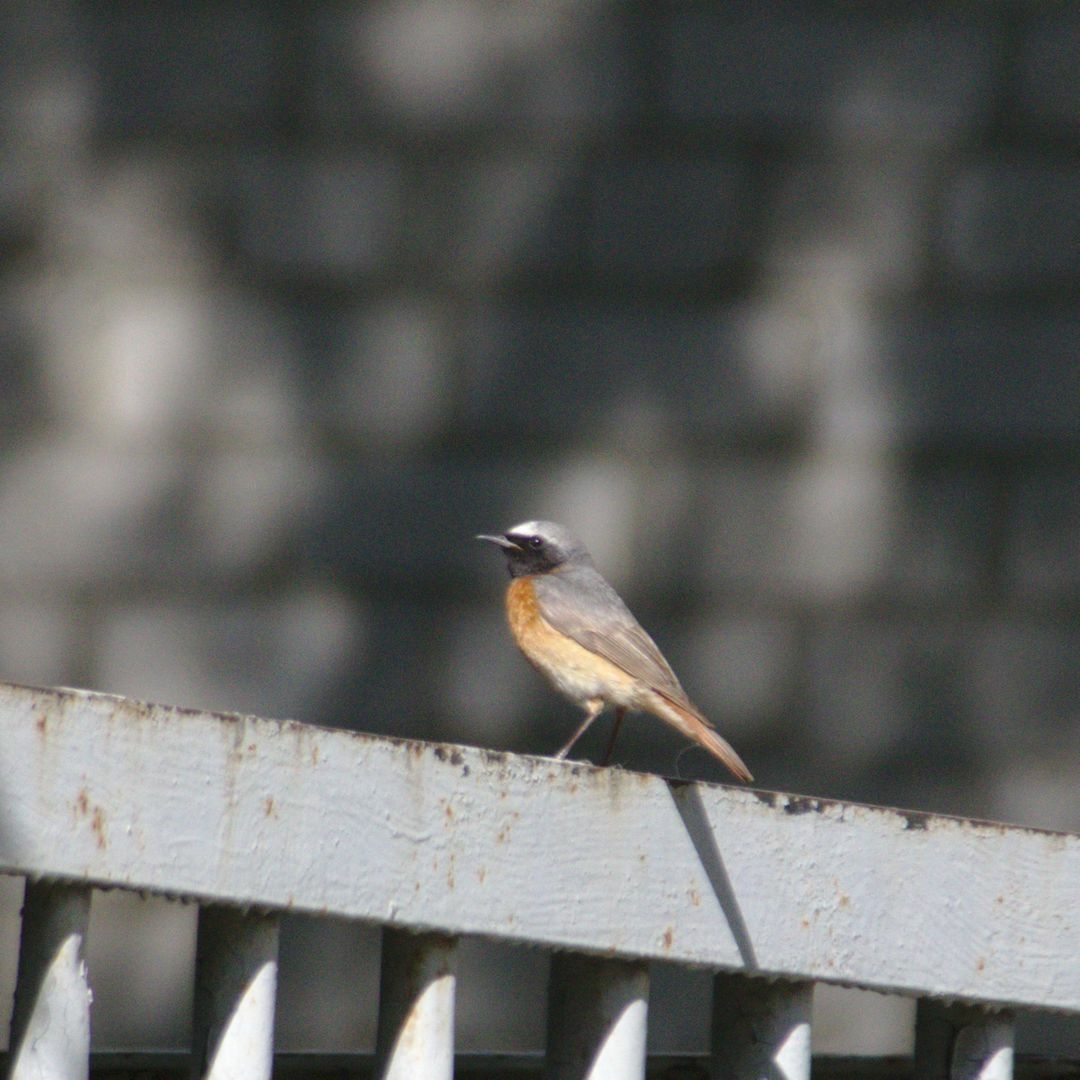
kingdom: Animalia
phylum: Chordata
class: Aves
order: Passeriformes
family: Muscicapidae
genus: Phoenicurus
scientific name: Phoenicurus phoenicurus
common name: Common redstart
